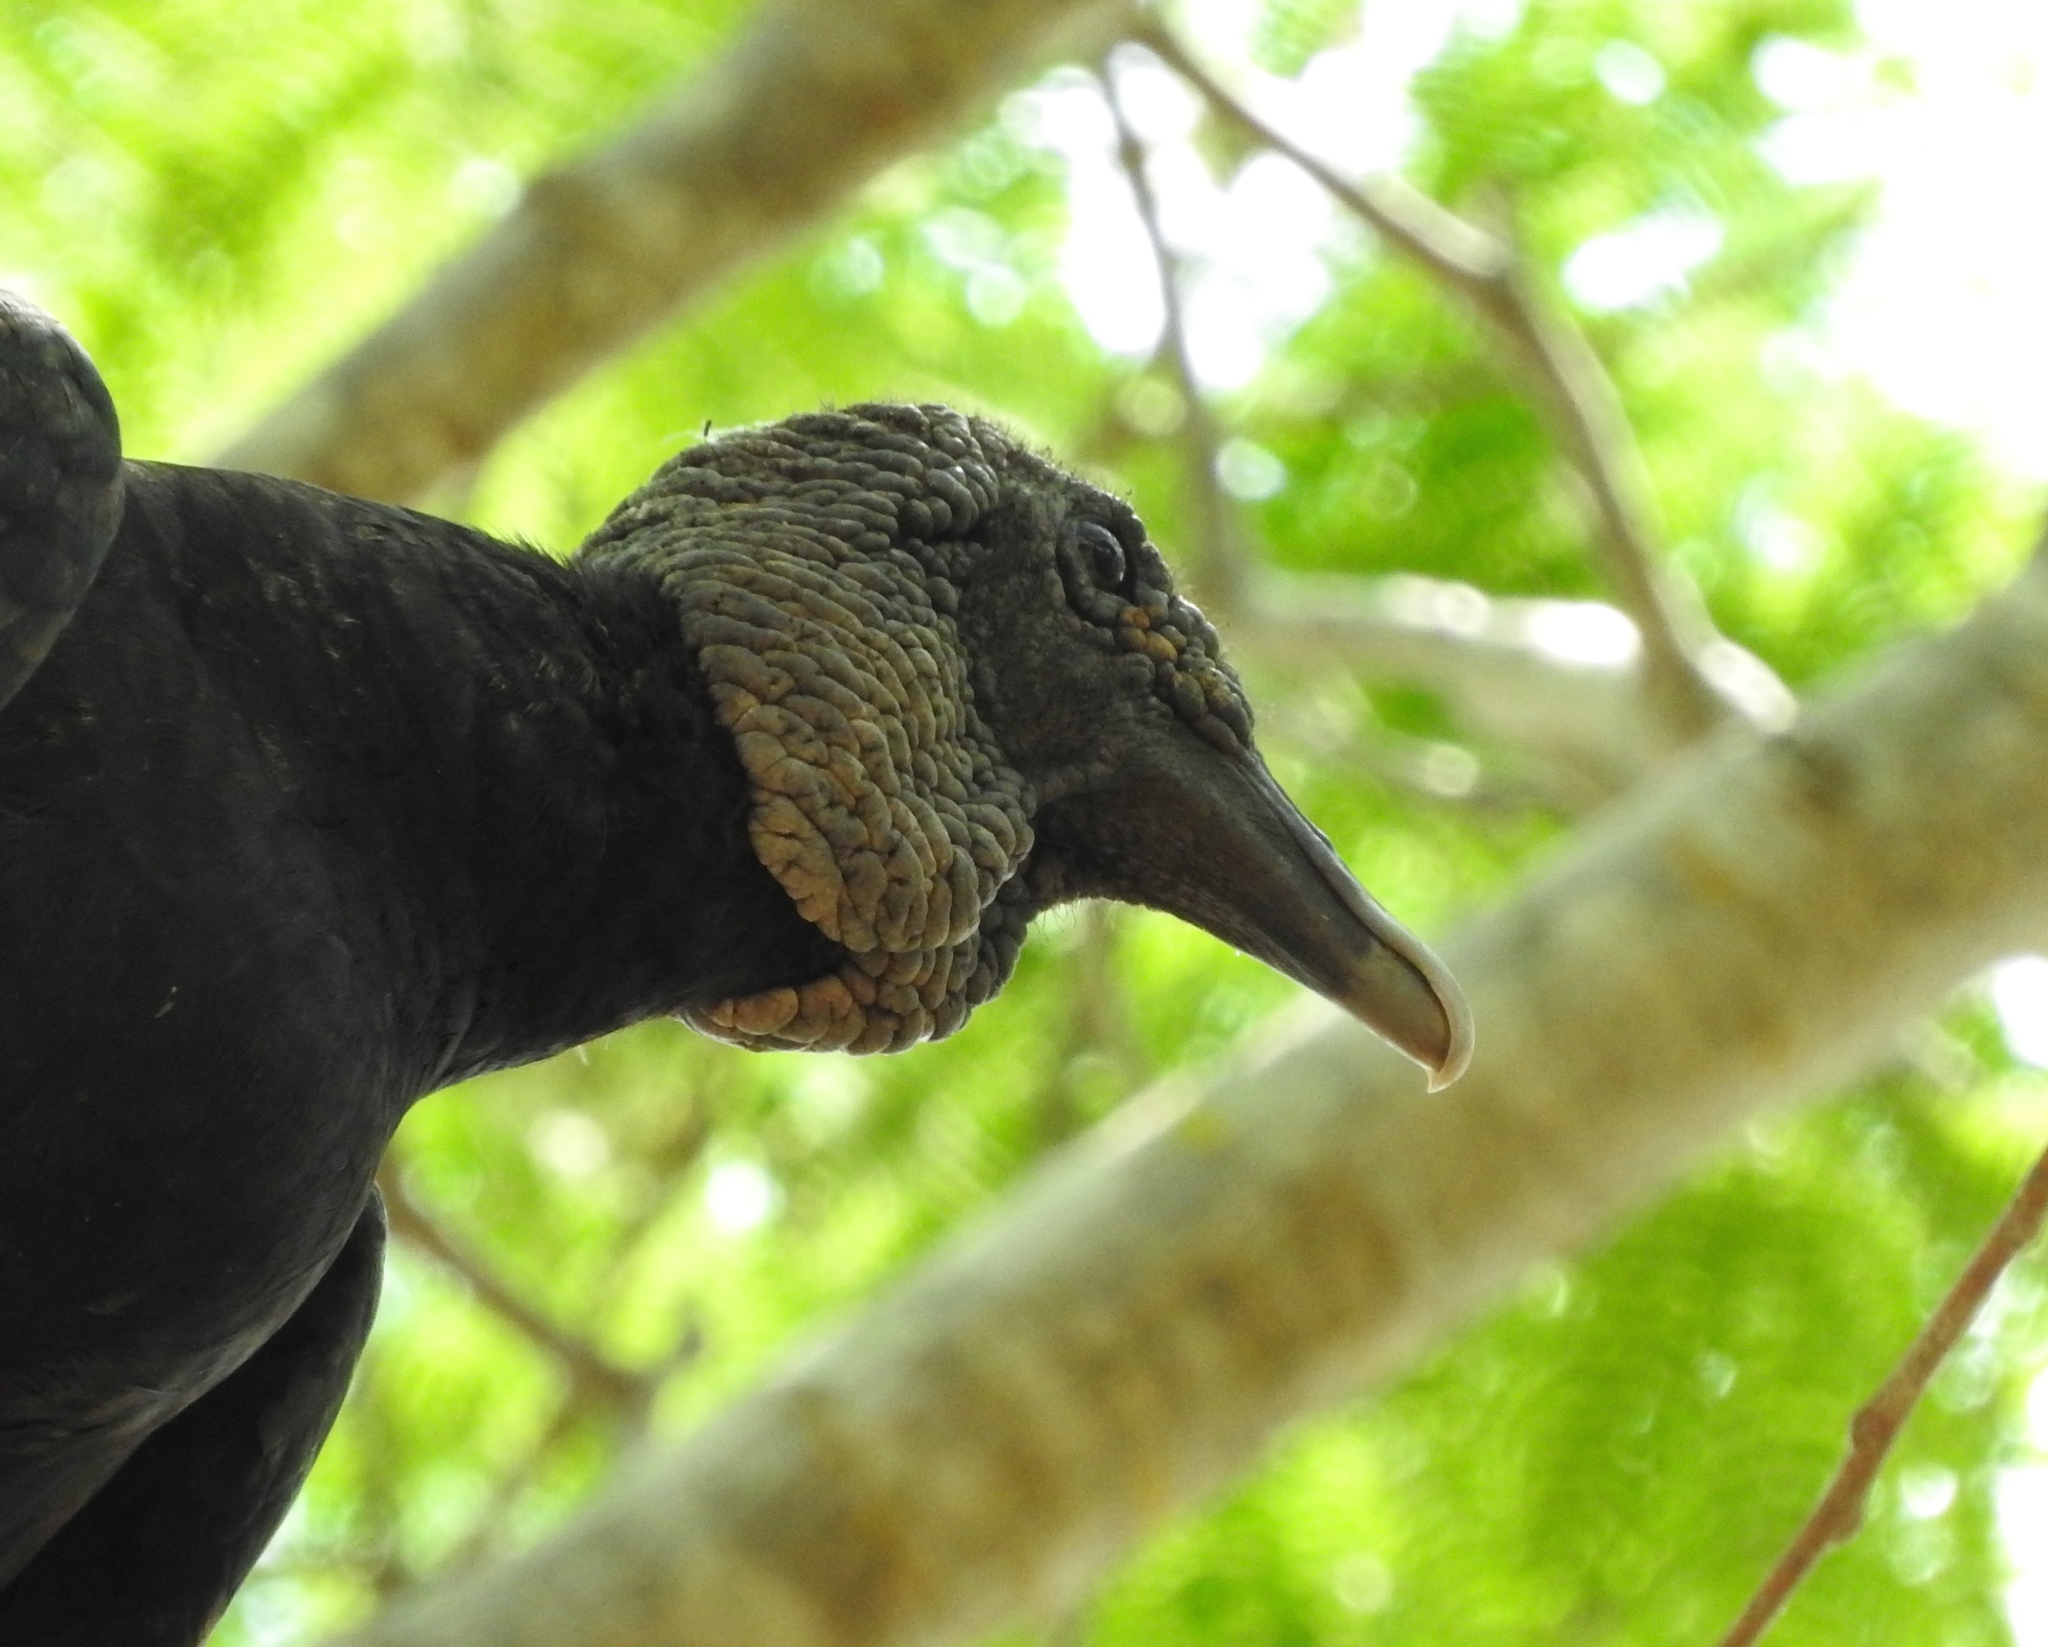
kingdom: Animalia
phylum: Chordata
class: Aves
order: Accipitriformes
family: Cathartidae
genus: Coragyps
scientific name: Coragyps atratus
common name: Black vulture
